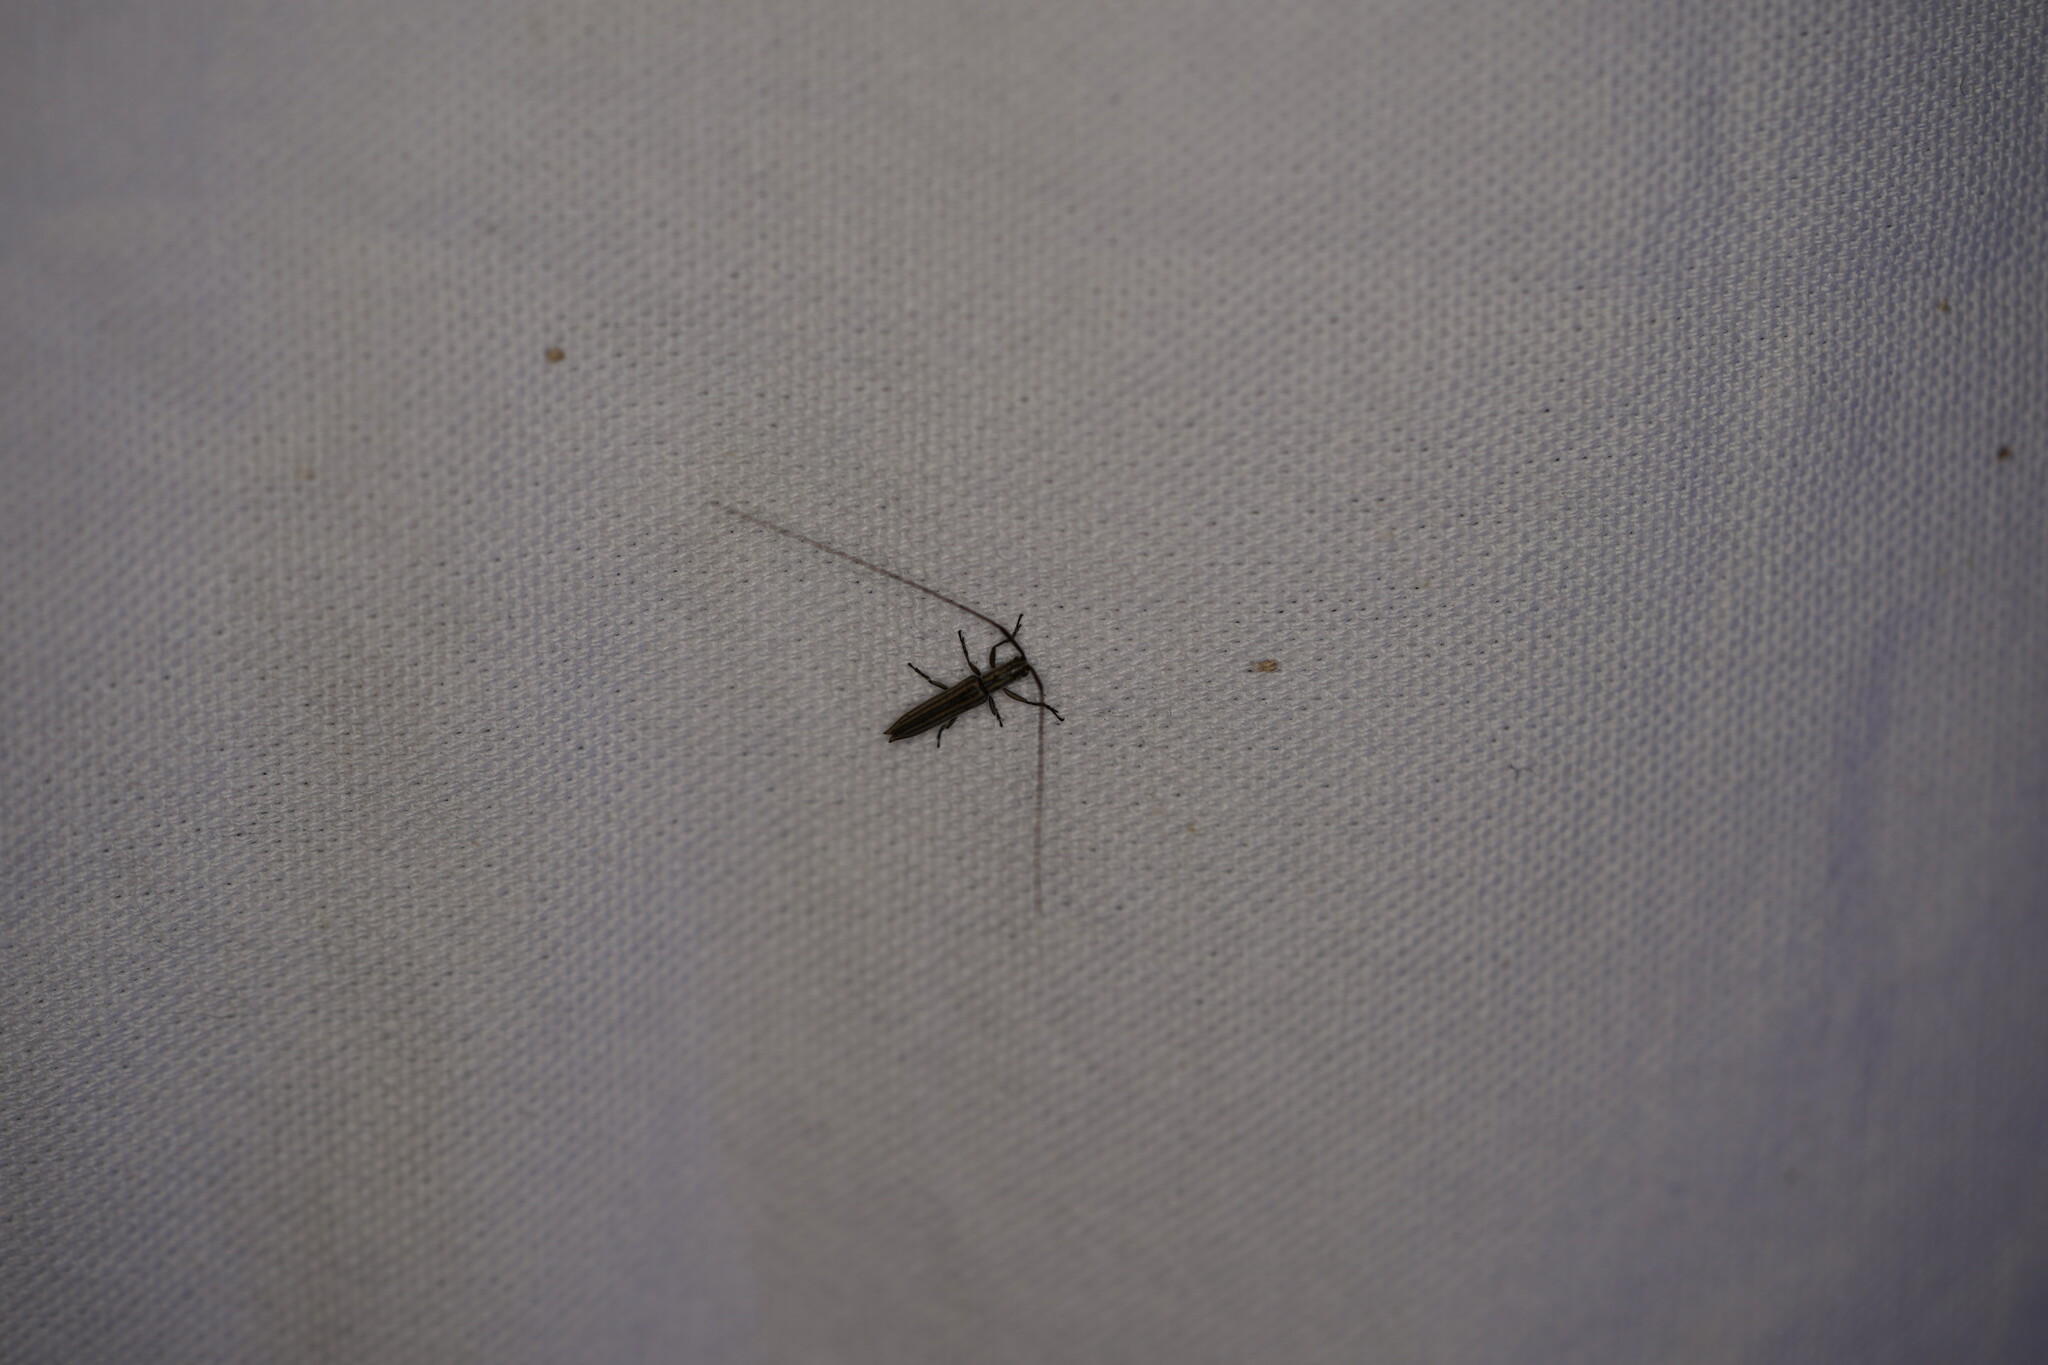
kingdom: Animalia
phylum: Arthropoda
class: Insecta
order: Coleoptera
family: Cerambycidae
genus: Hippopsis
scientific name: Hippopsis
